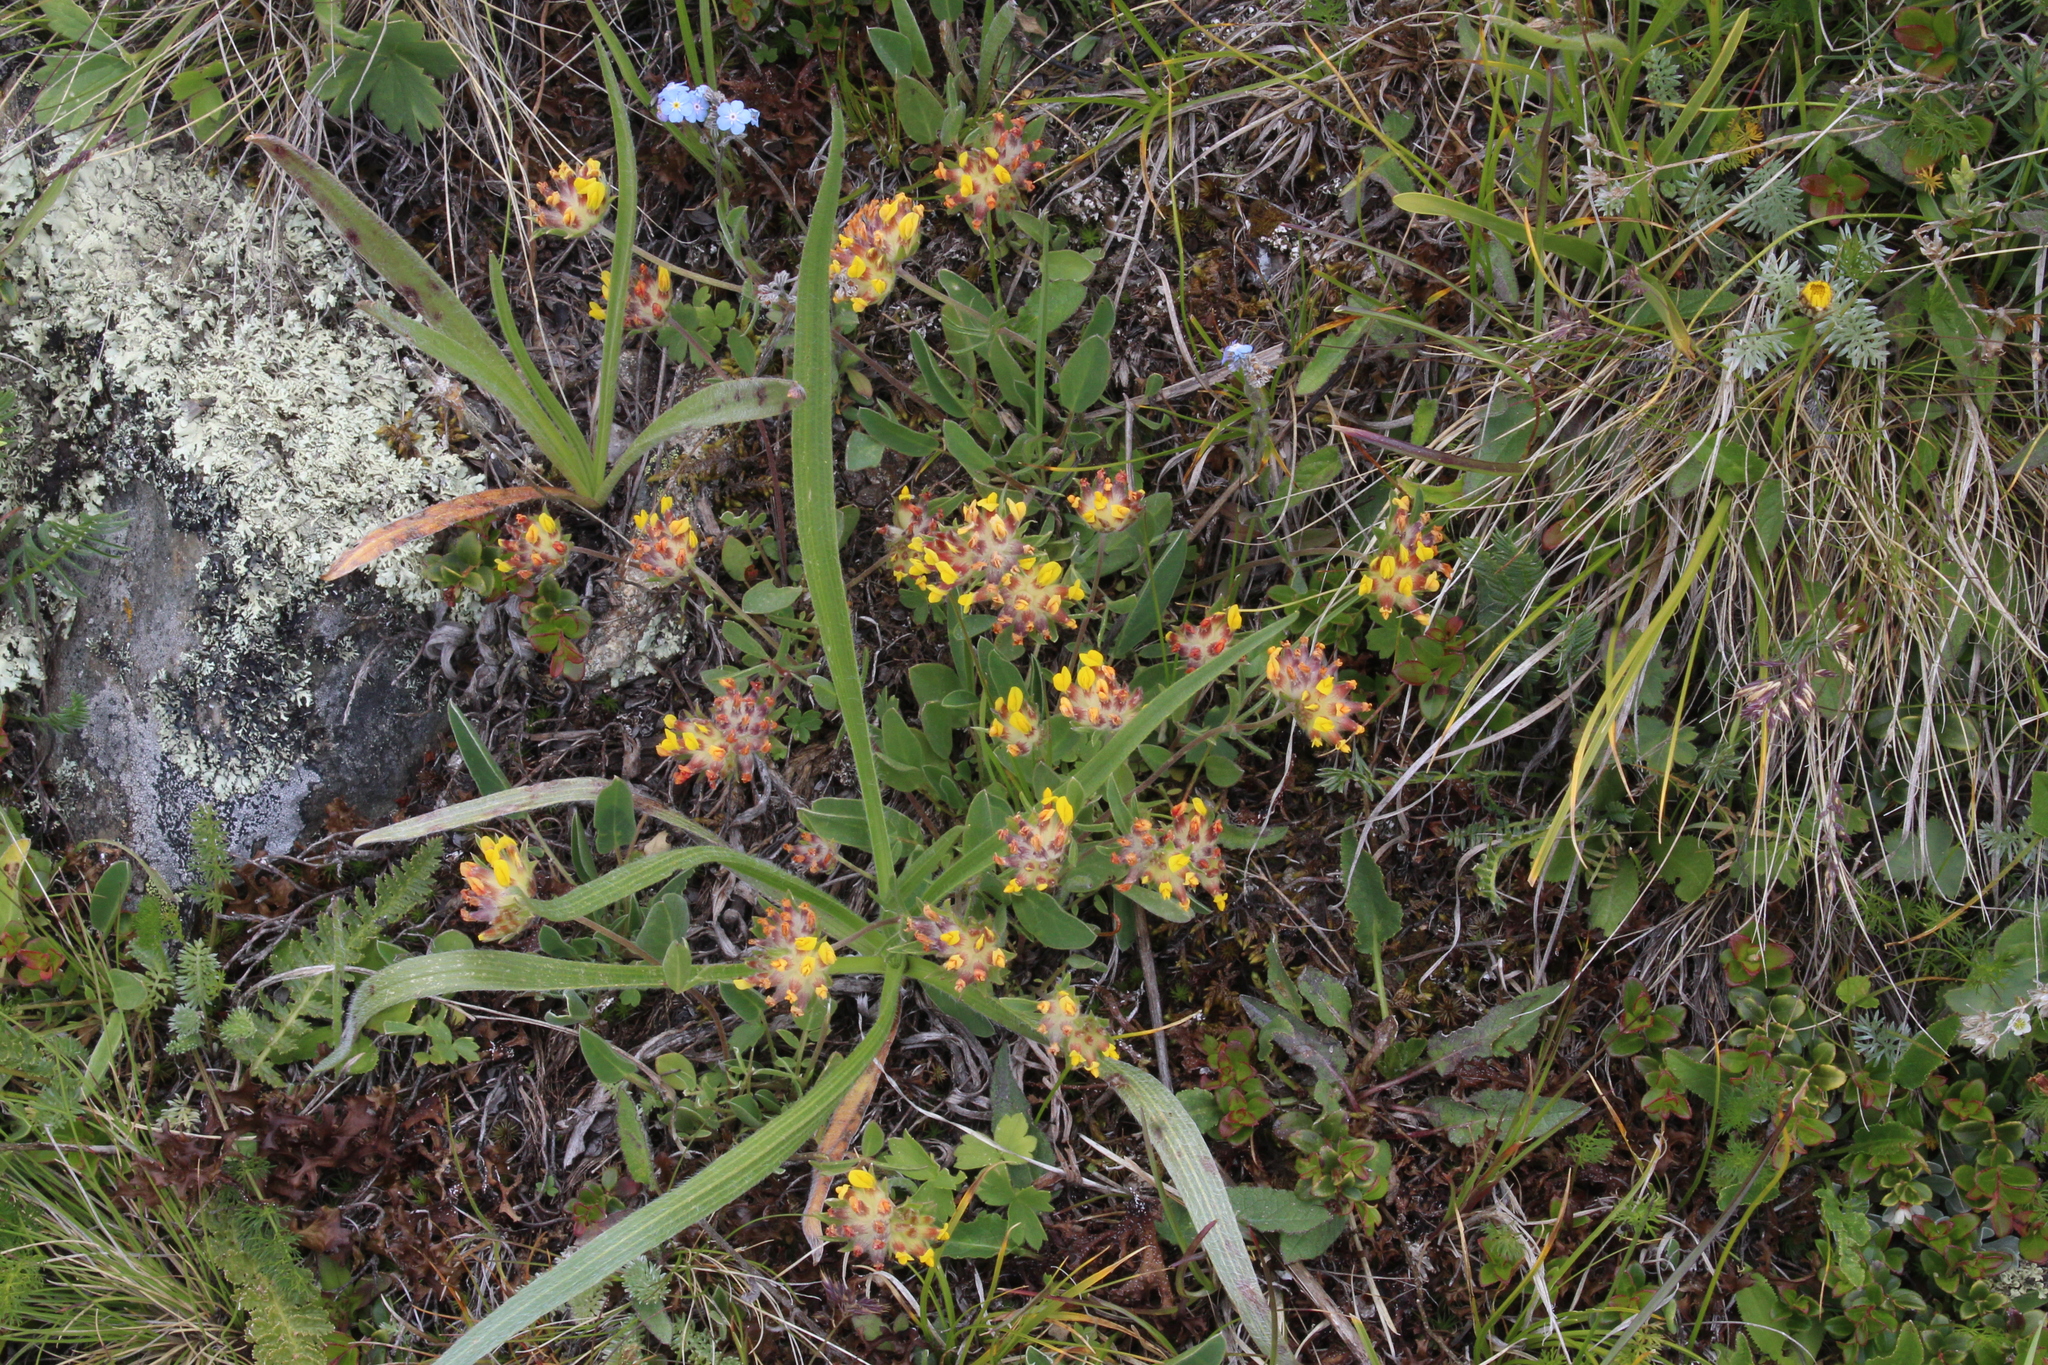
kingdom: Plantae
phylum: Tracheophyta
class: Magnoliopsida
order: Fabales
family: Fabaceae
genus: Anthyllis
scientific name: Anthyllis vulneraria
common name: Kidney vetch
